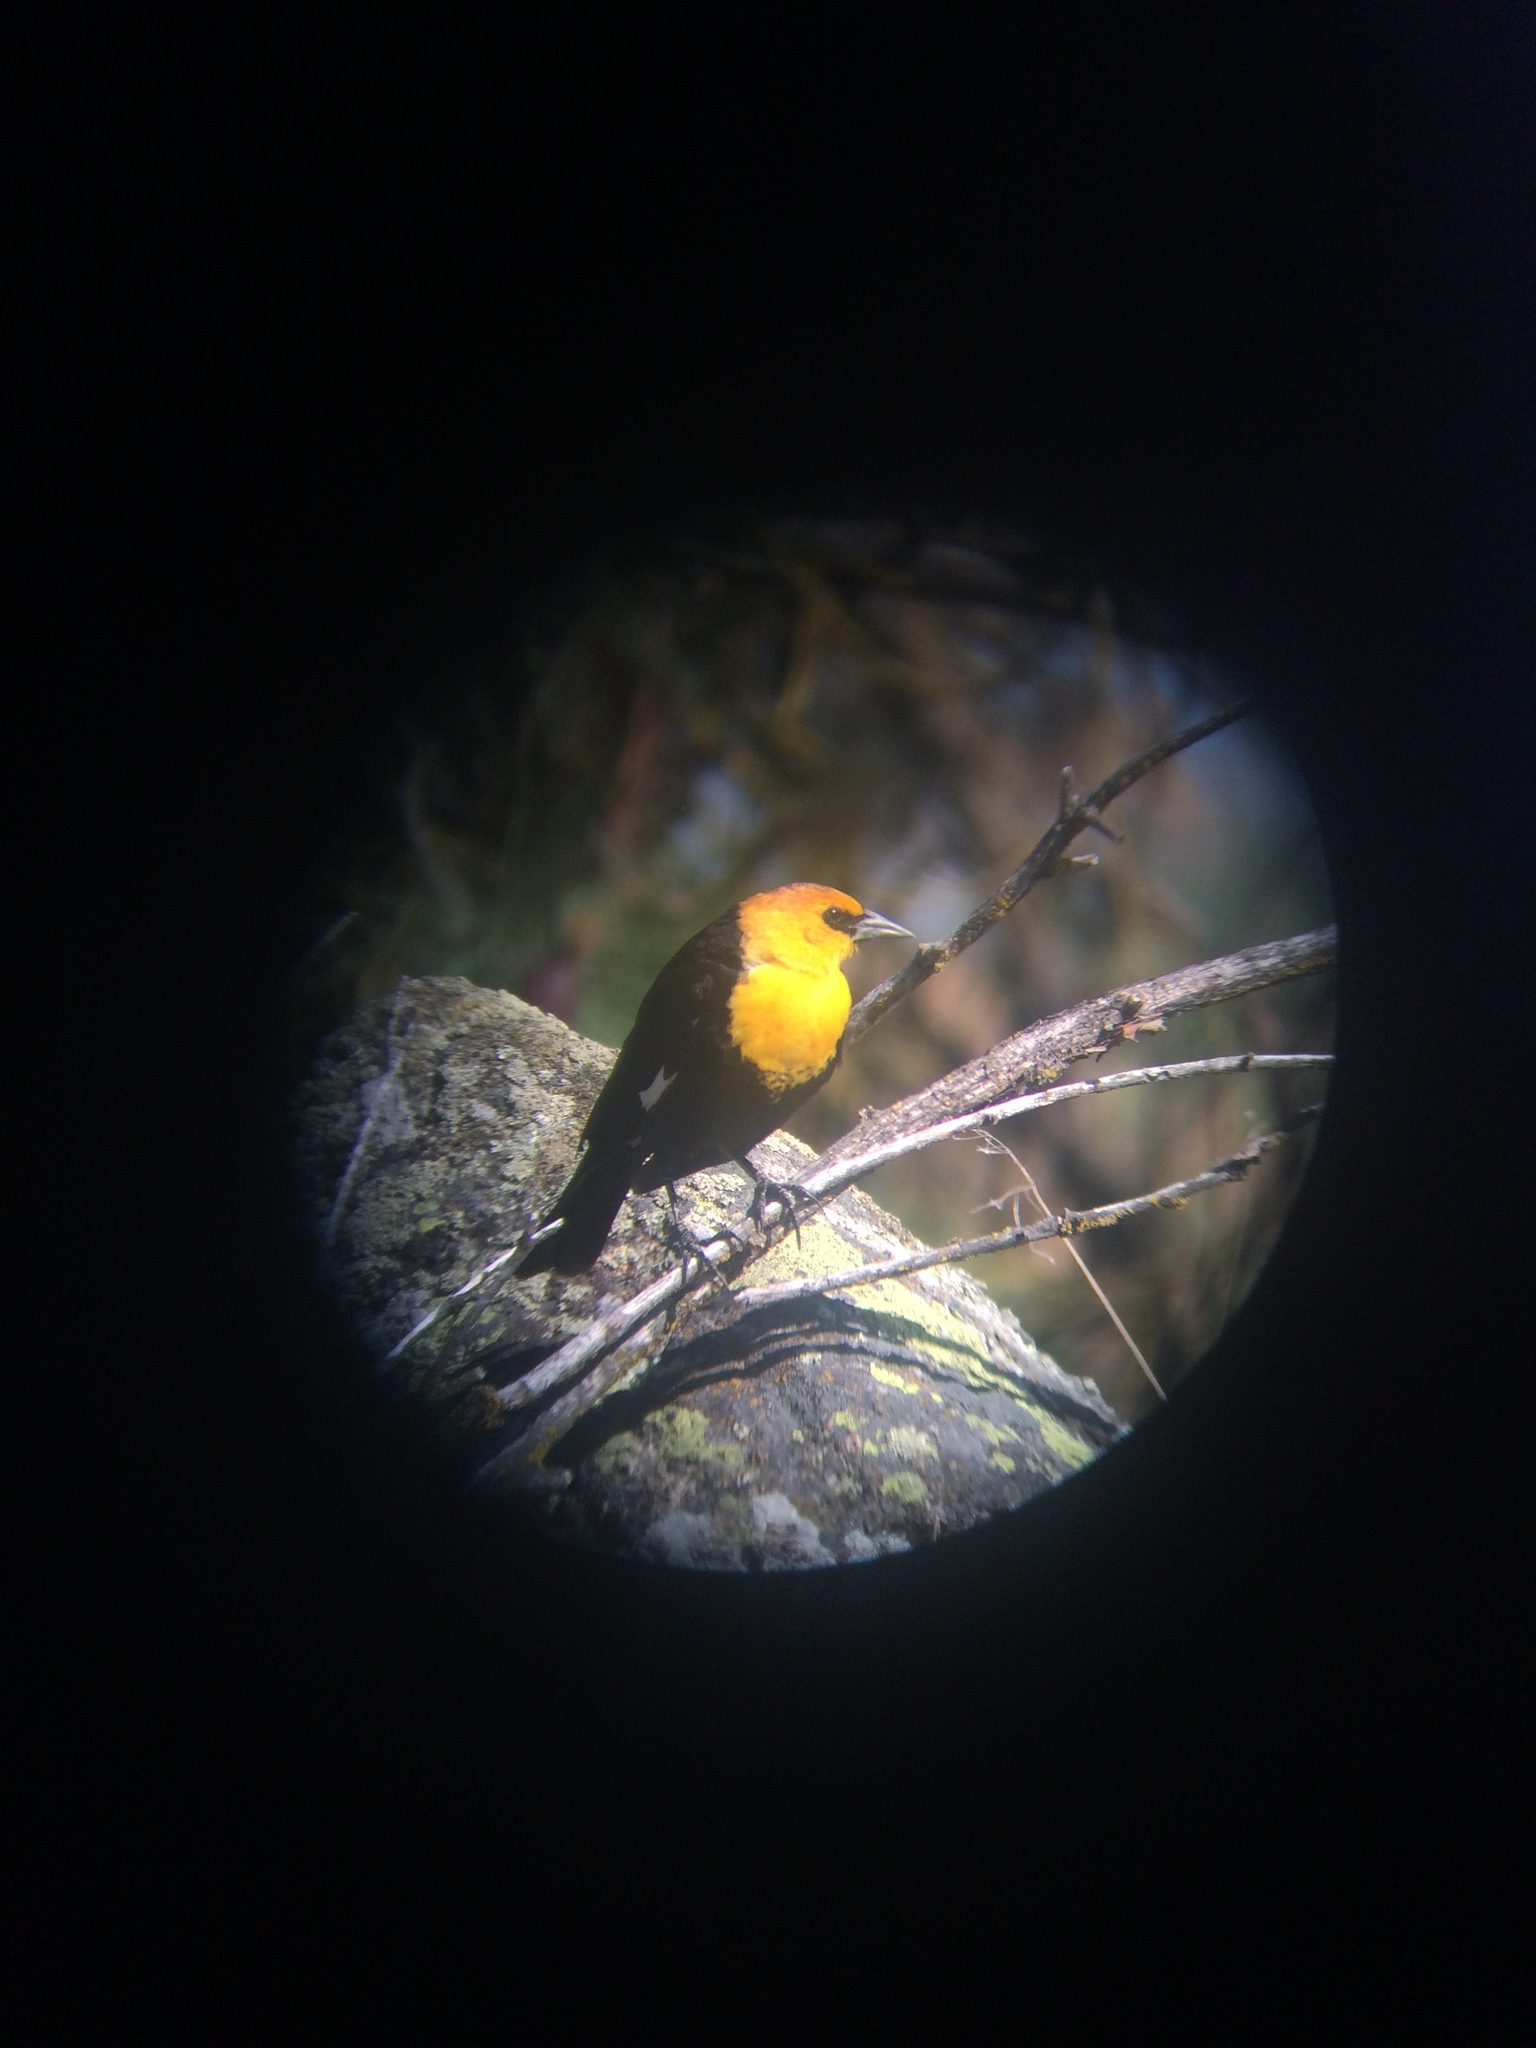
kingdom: Animalia
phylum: Chordata
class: Aves
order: Passeriformes
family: Icteridae
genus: Xanthocephalus
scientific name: Xanthocephalus xanthocephalus
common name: Yellow-headed blackbird
